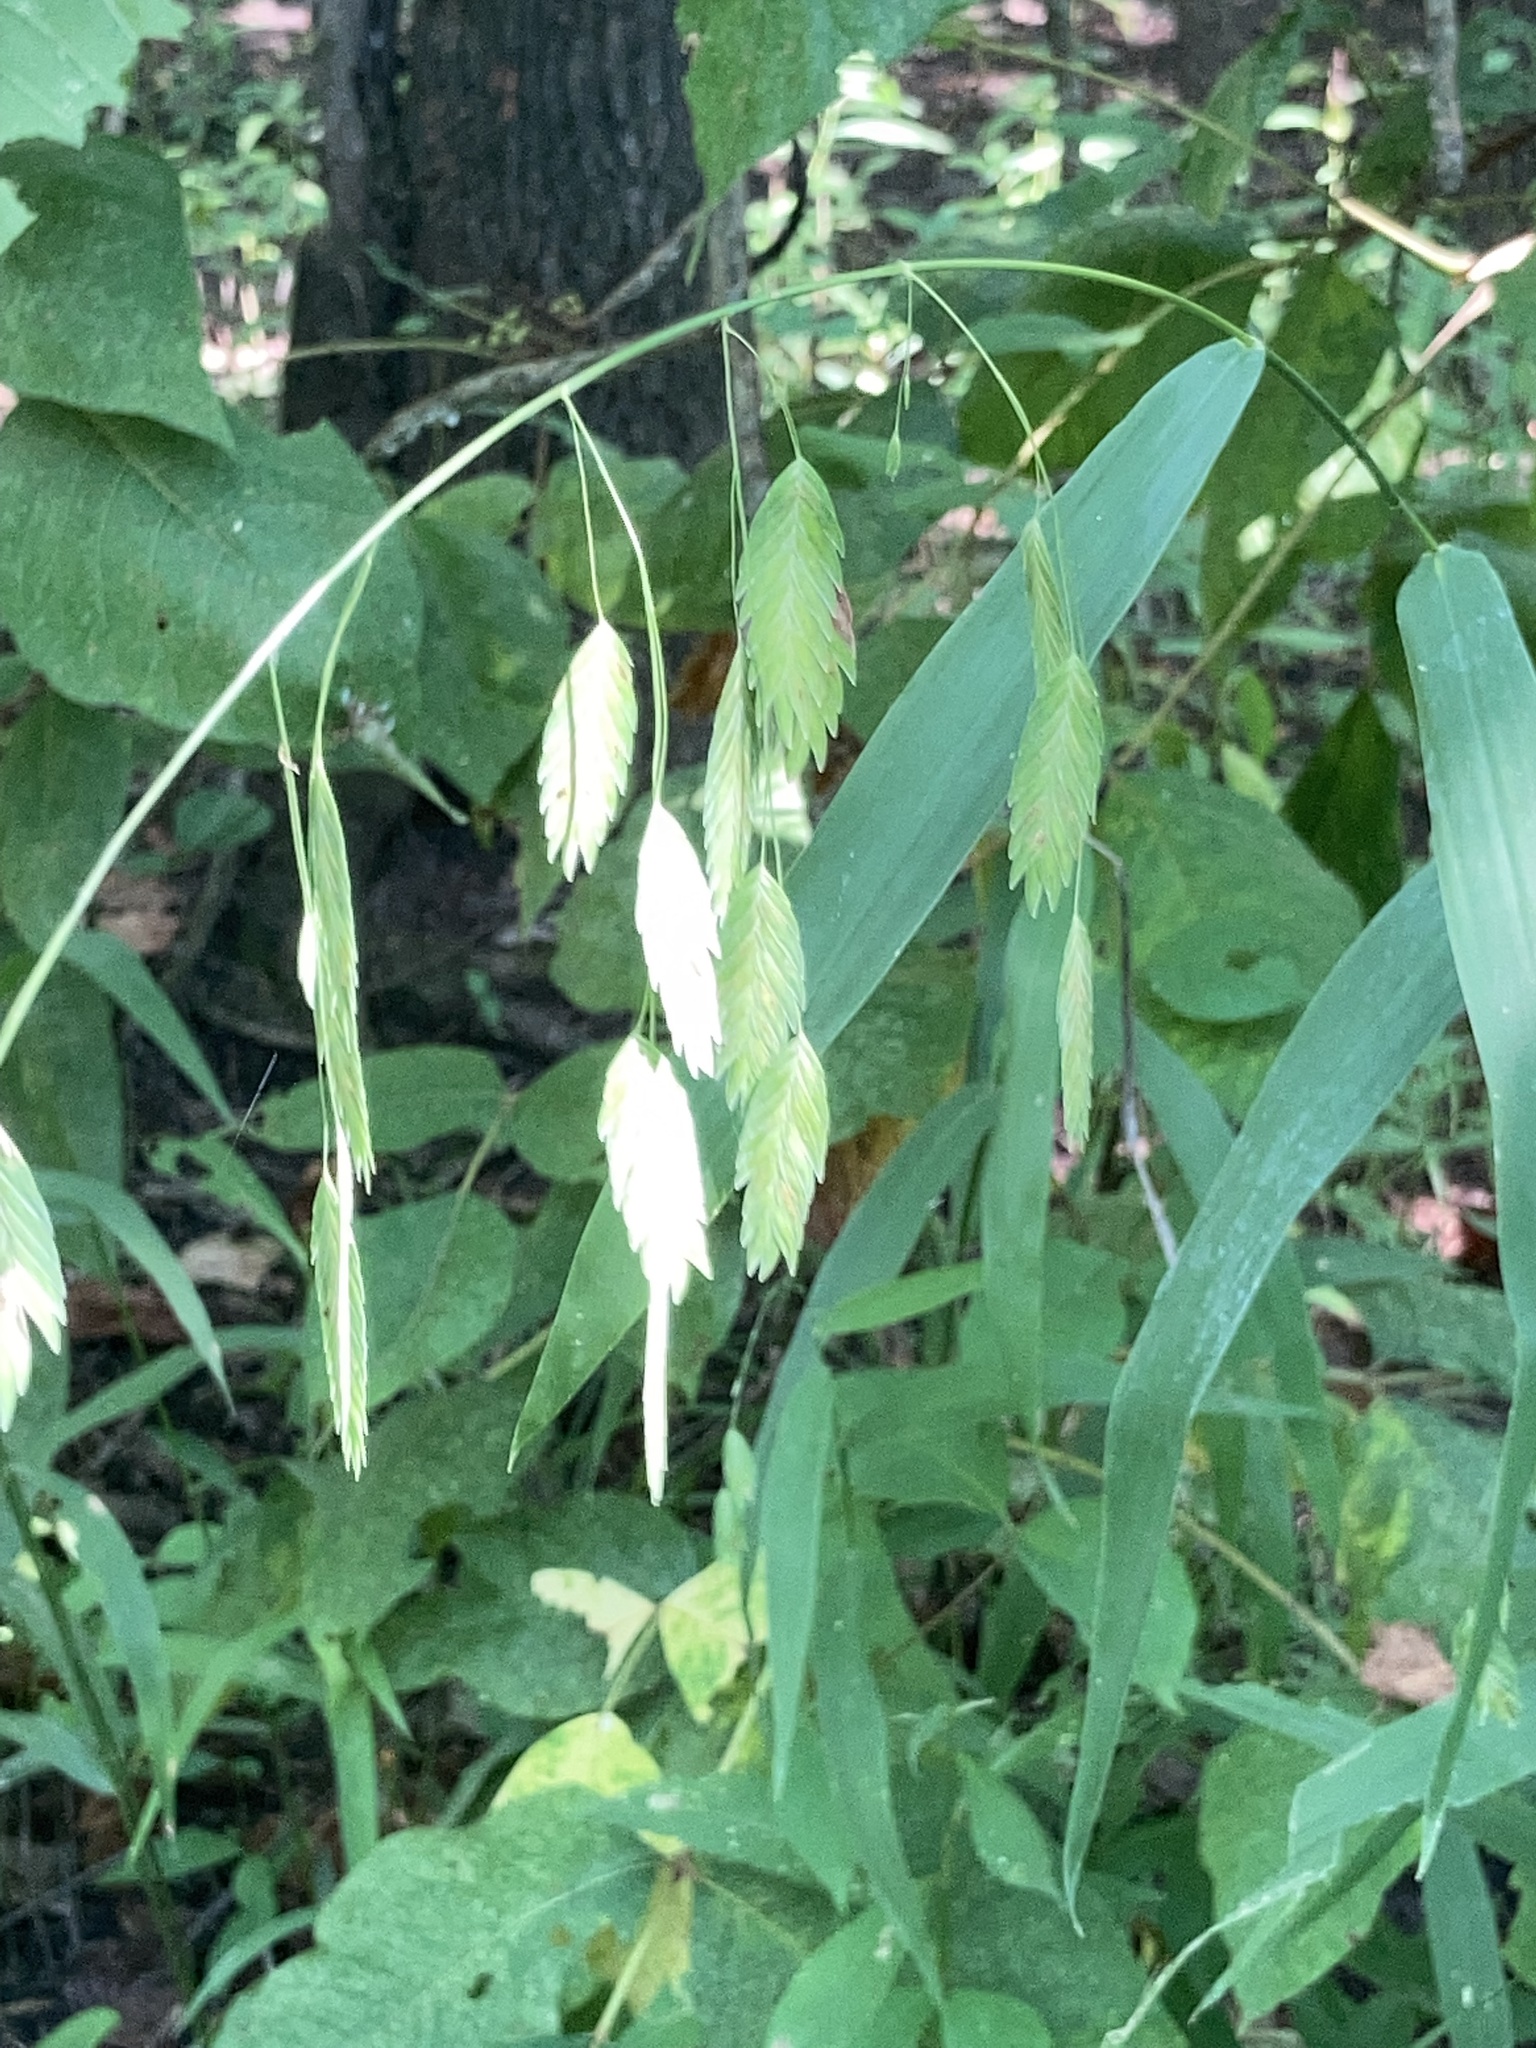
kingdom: Plantae
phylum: Tracheophyta
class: Liliopsida
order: Poales
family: Poaceae
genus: Chasmanthium
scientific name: Chasmanthium latifolium
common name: Broad-leaved chasmanthium
